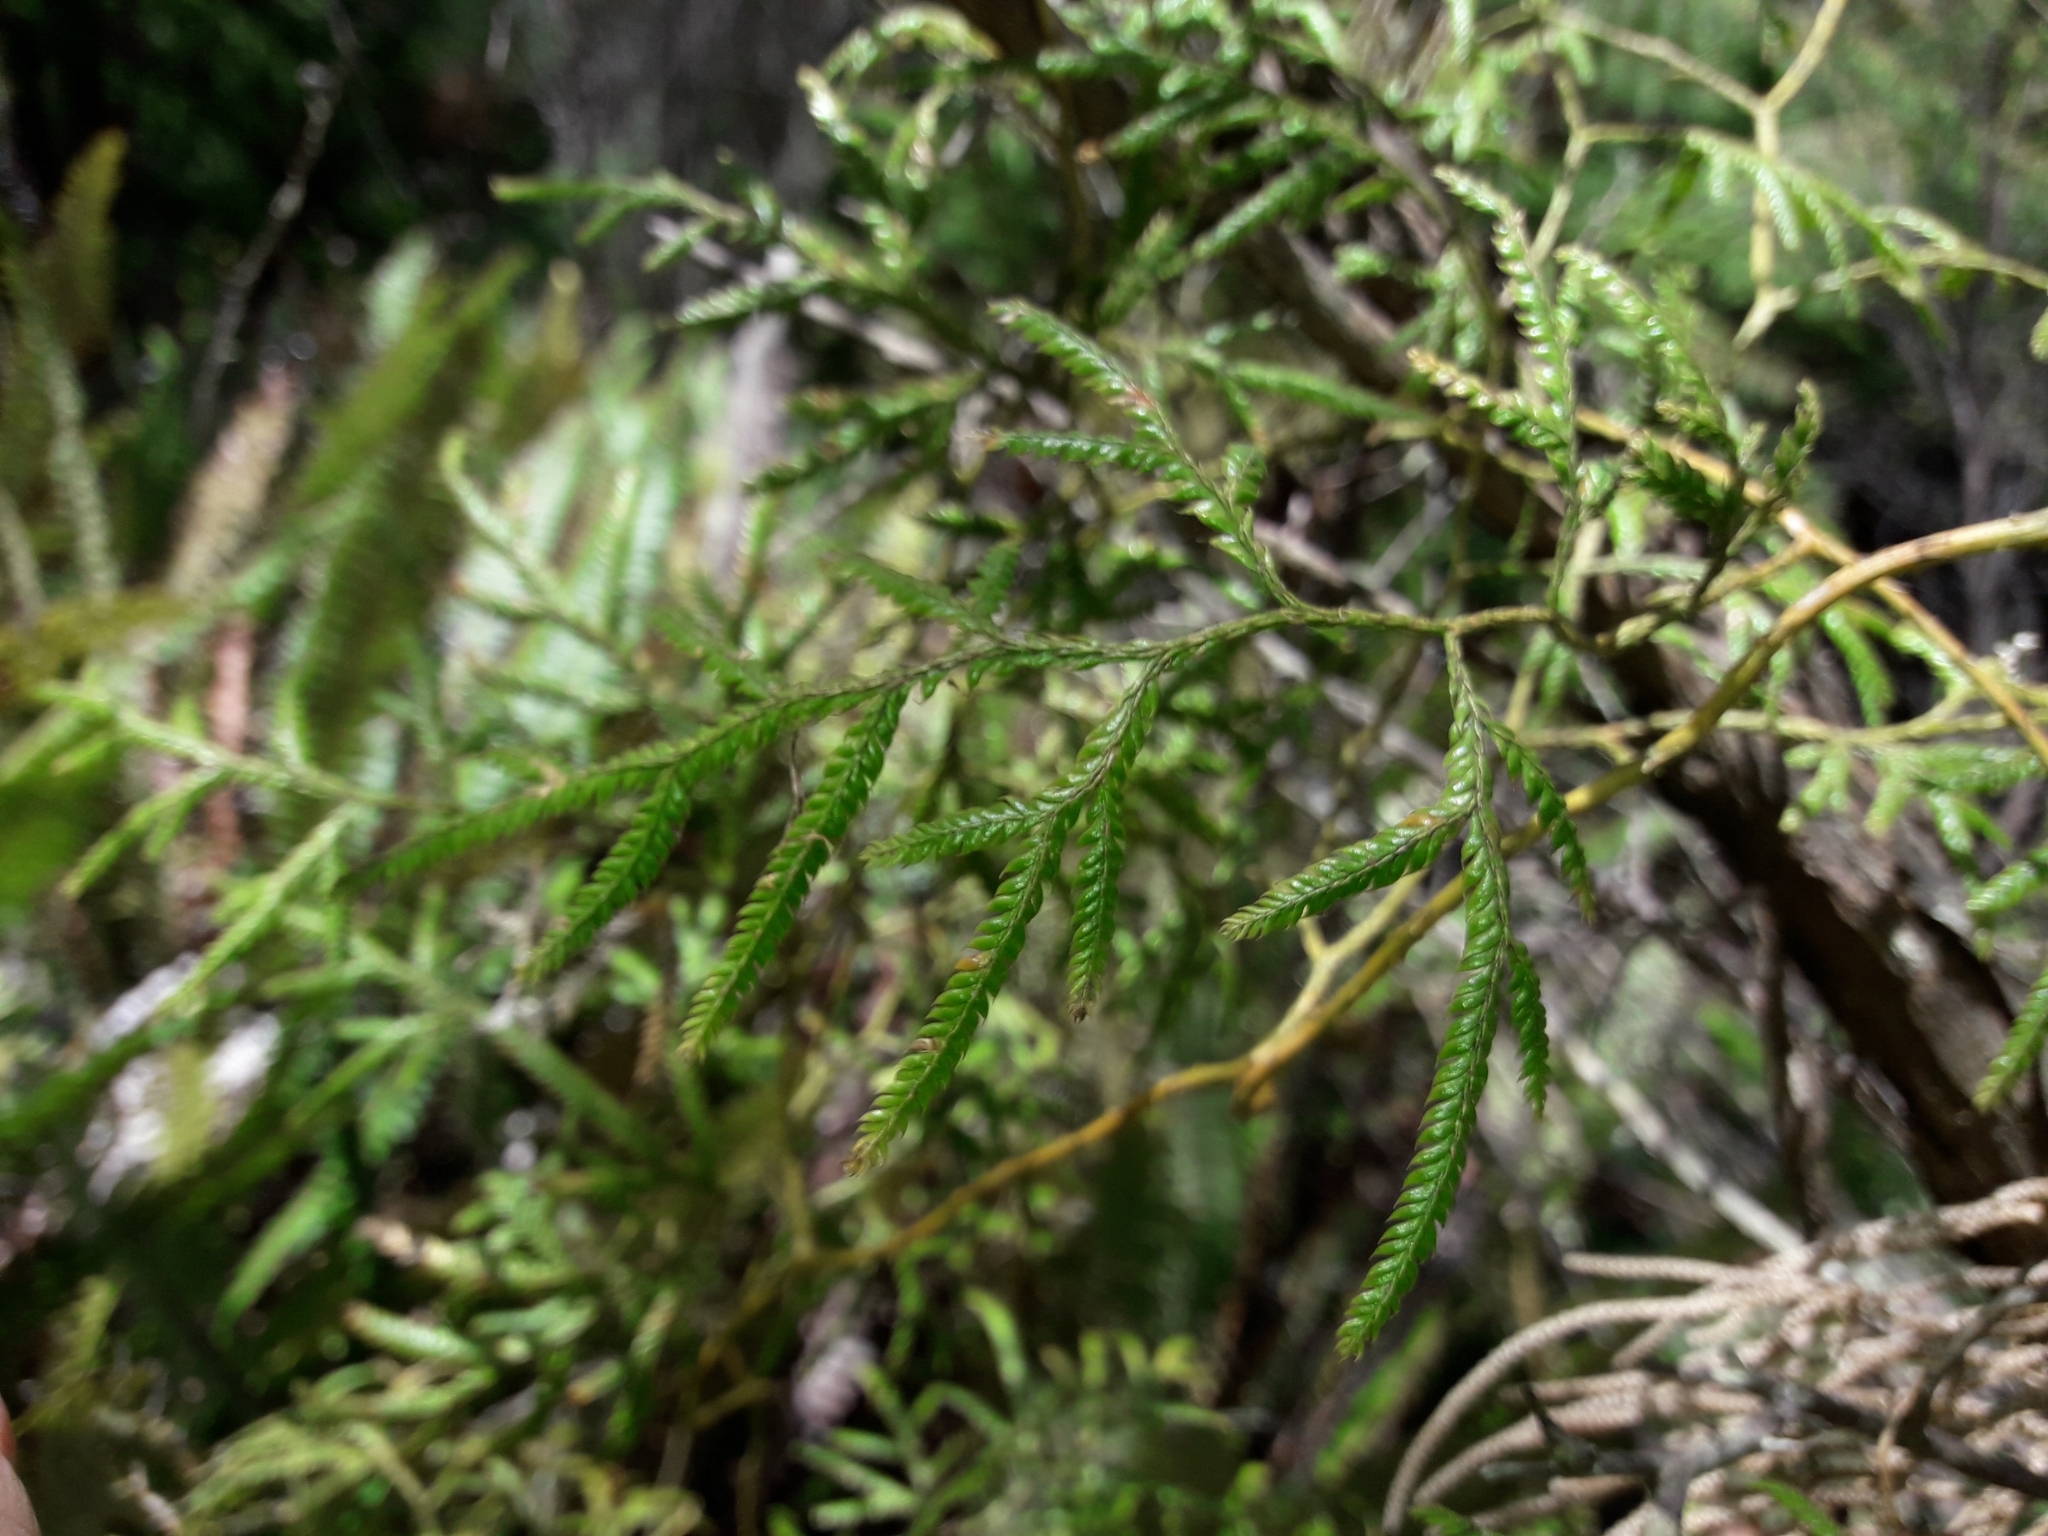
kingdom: Plantae
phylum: Tracheophyta
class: Lycopodiopsida
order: Lycopodiales
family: Lycopodiaceae
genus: Lycopodium
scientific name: Lycopodium volubile
